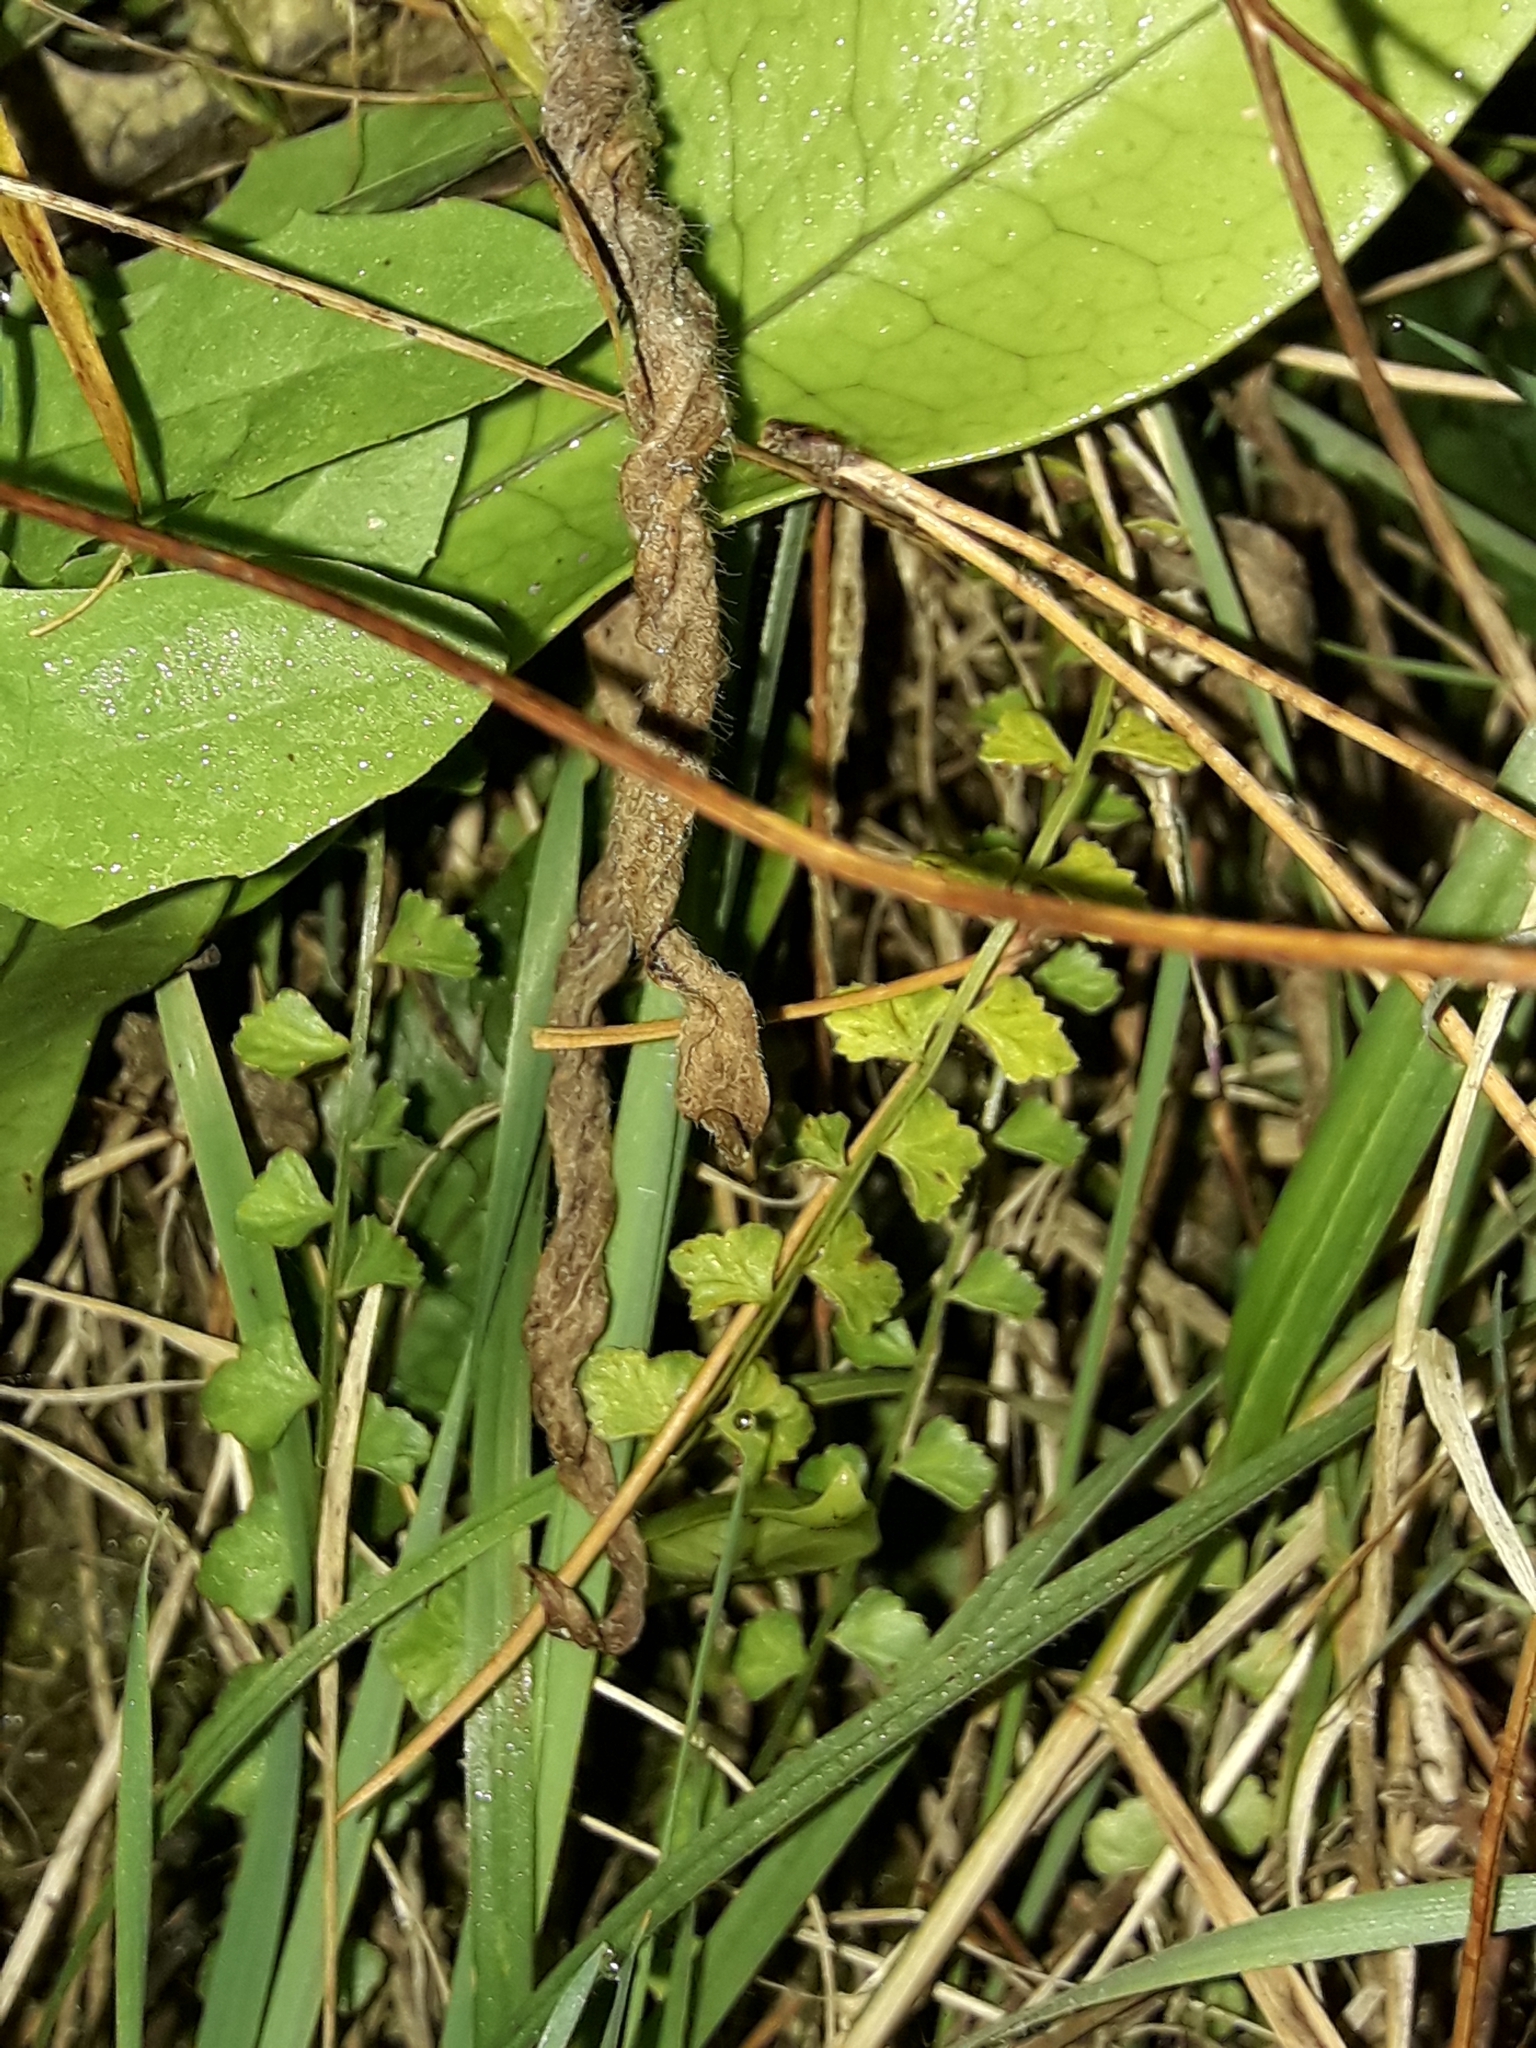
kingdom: Plantae
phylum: Tracheophyta
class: Polypodiopsida
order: Polypodiales
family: Aspleniaceae
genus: Asplenium
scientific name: Asplenium flabellifolium
